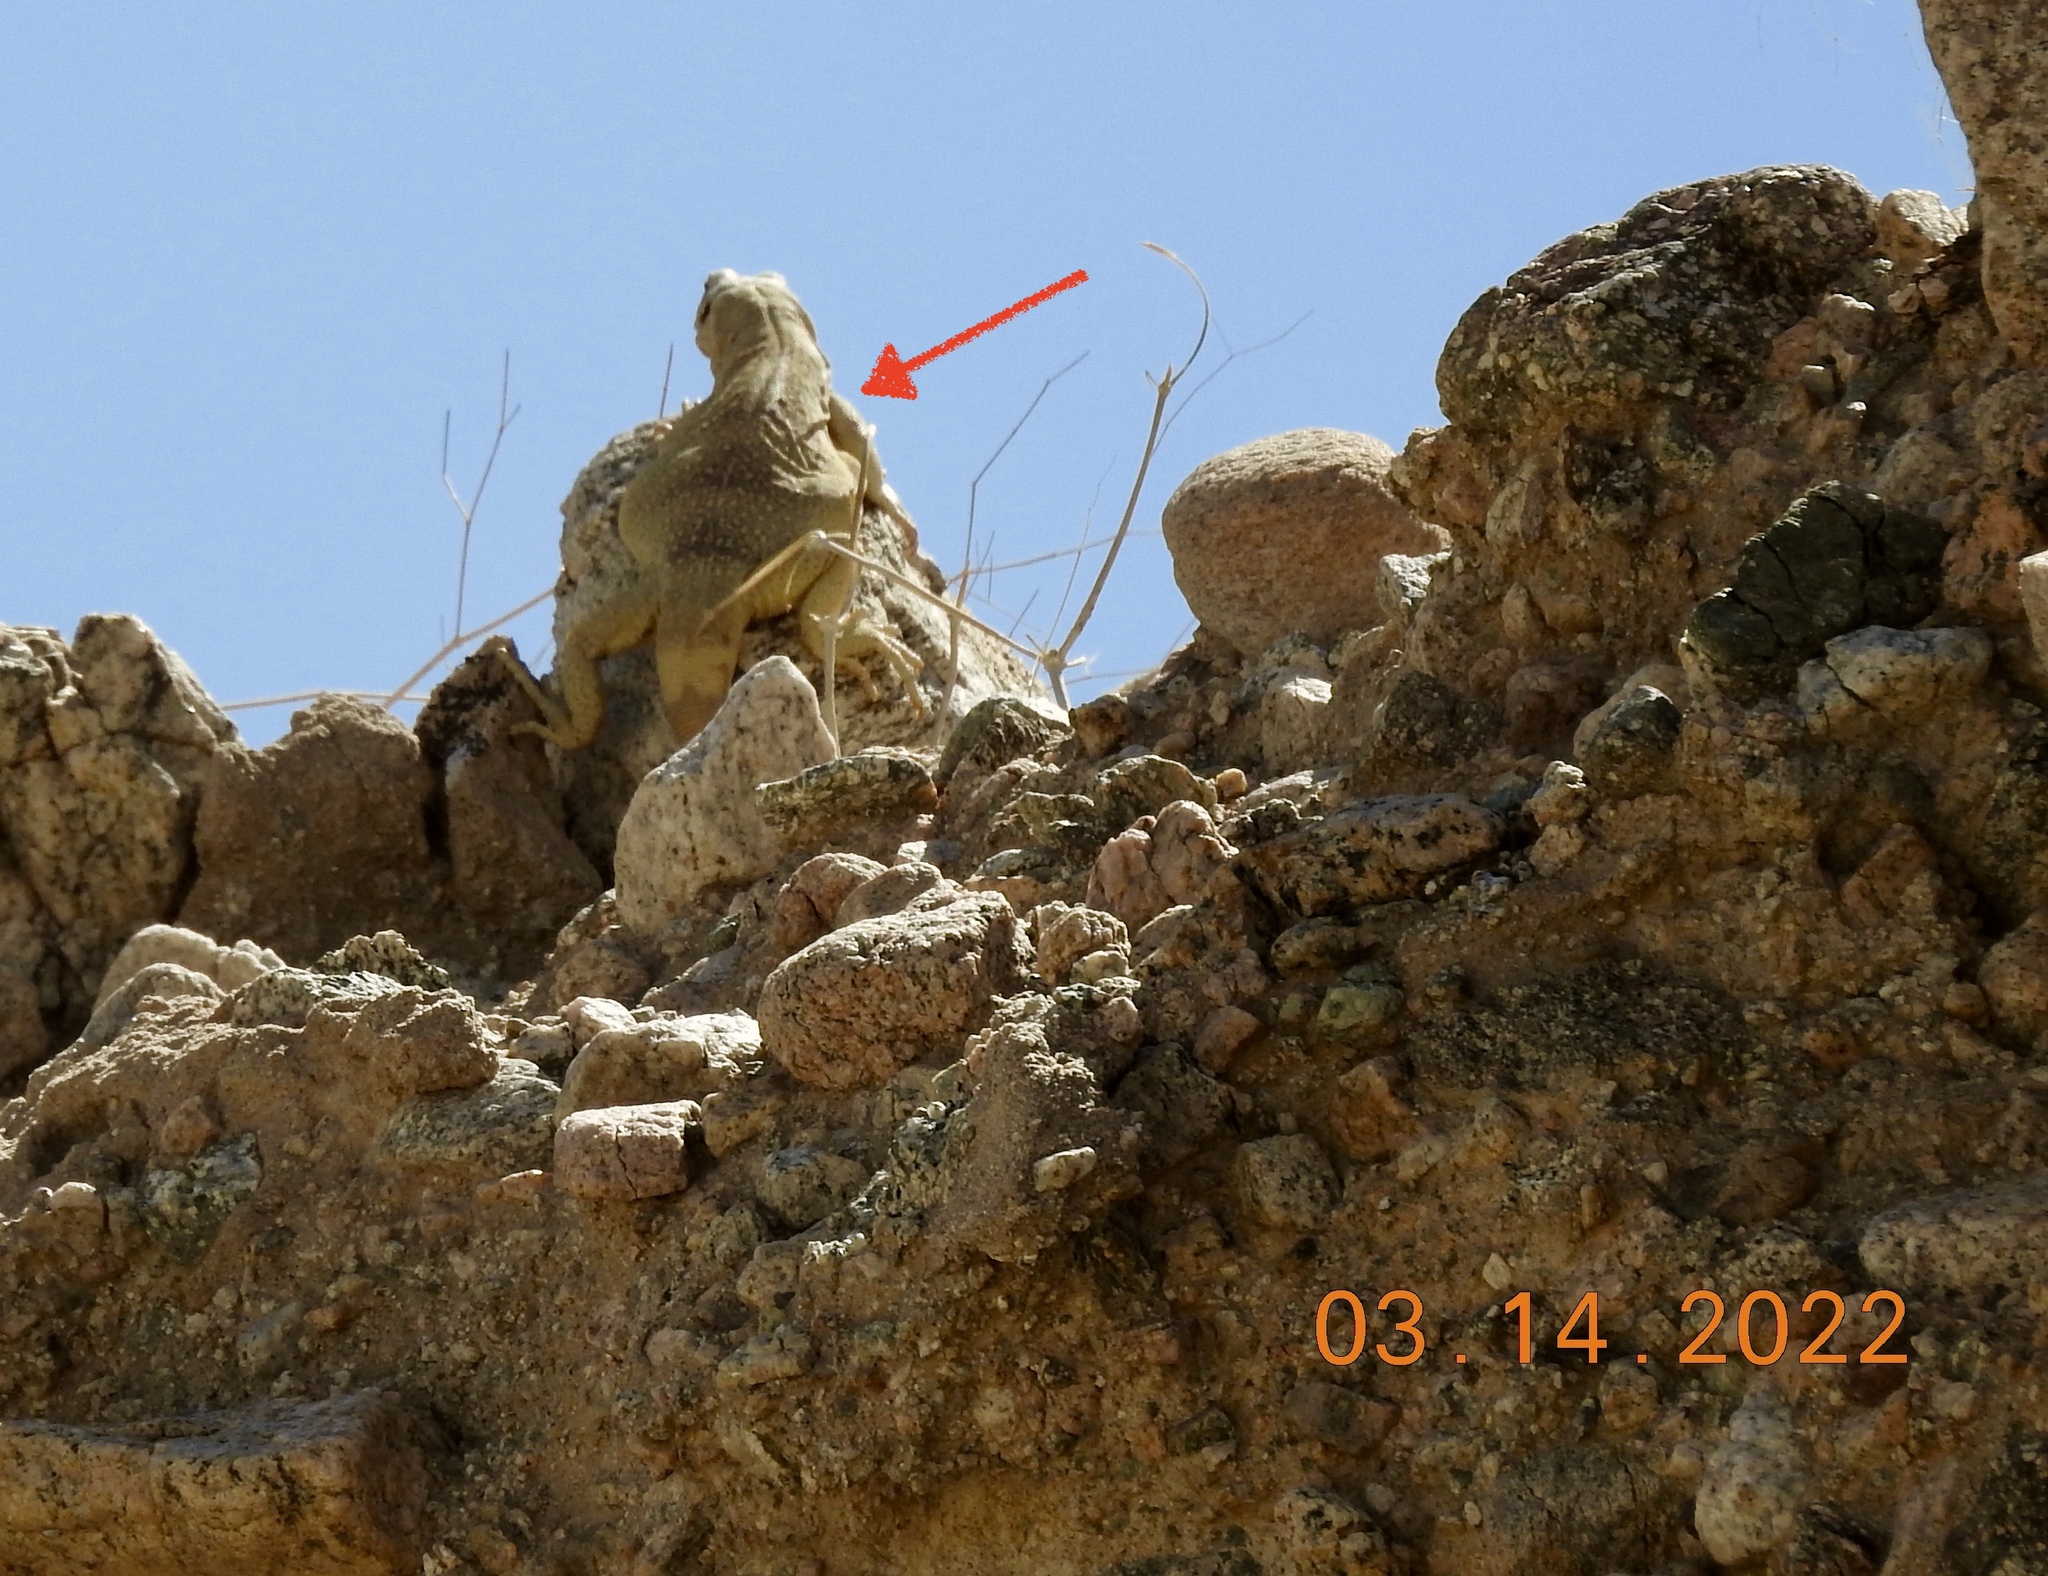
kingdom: Animalia
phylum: Chordata
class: Squamata
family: Iguanidae
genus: Sauromalus
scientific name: Sauromalus ater
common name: Northern chuckwalla
